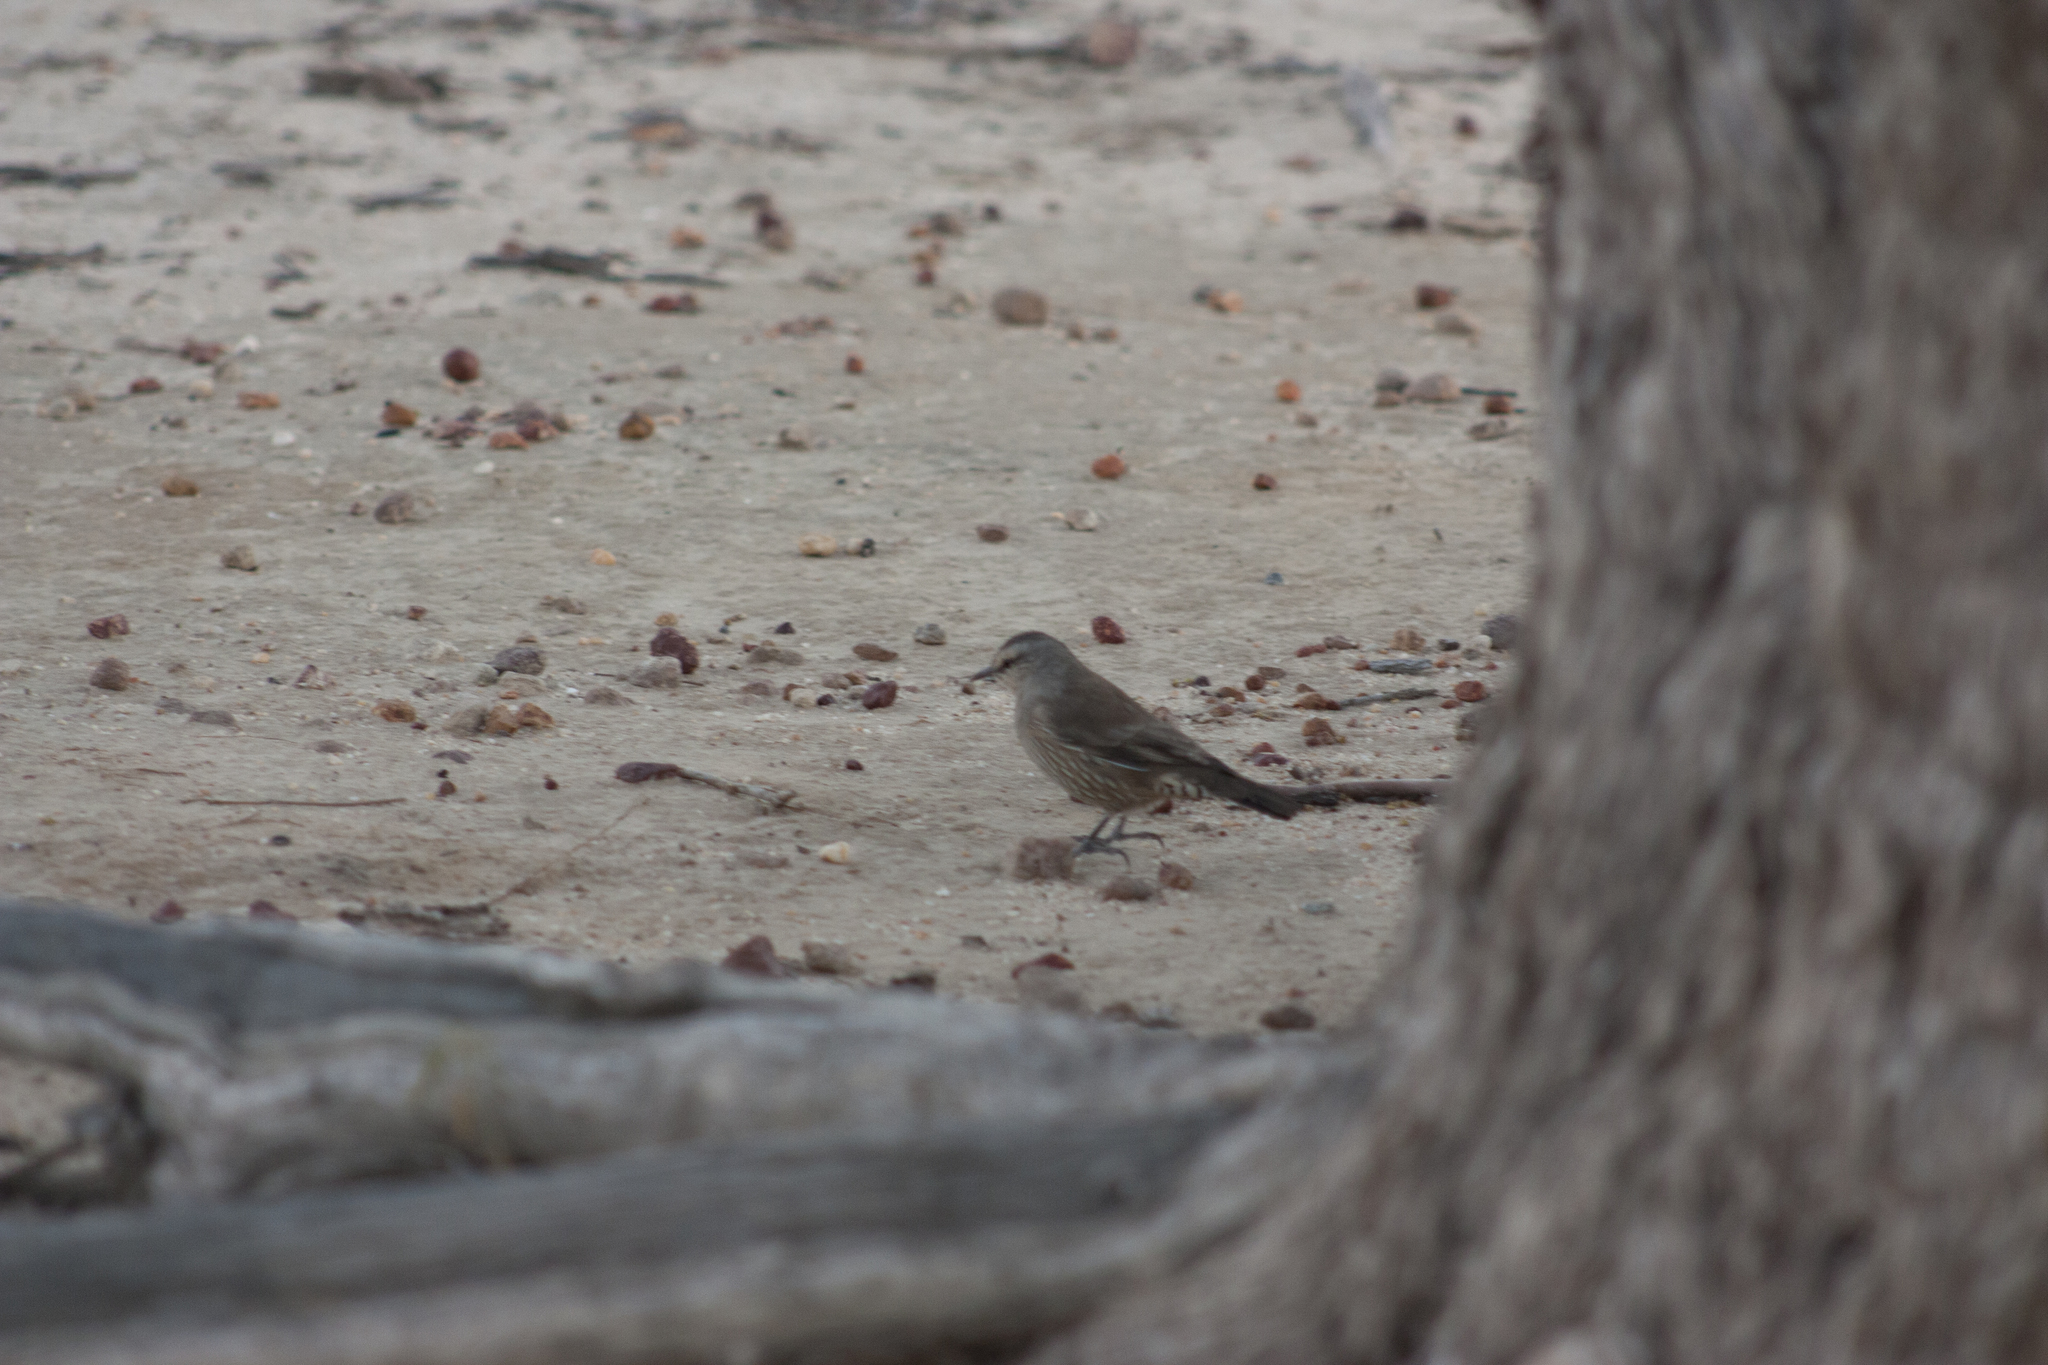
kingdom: Animalia
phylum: Chordata
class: Aves
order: Passeriformes
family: Climacteridae
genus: Climacteris
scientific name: Climacteris picumnus
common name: Brown treecreeper
